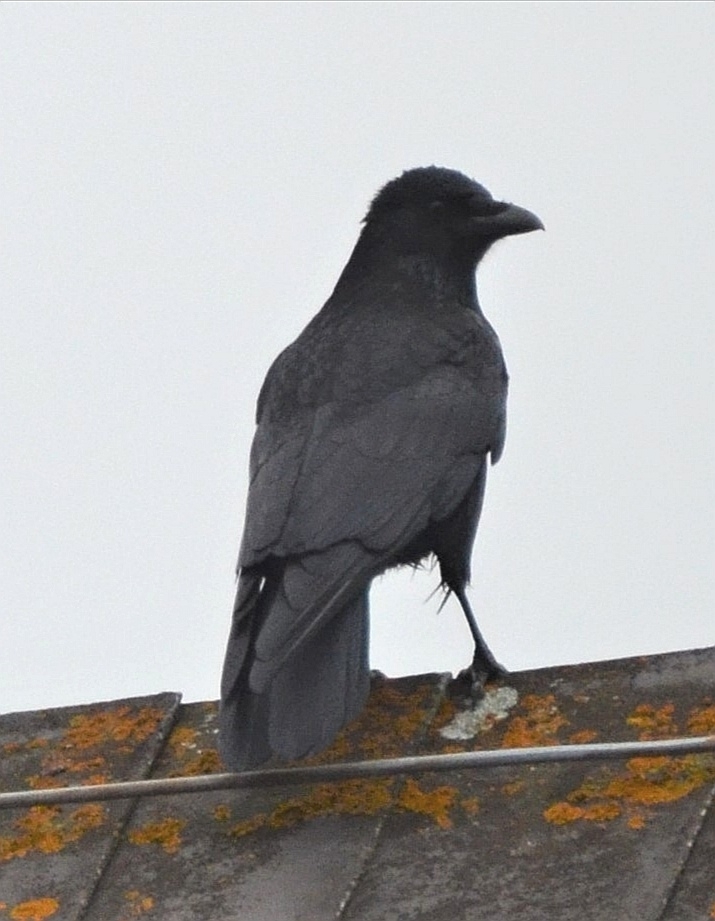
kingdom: Animalia
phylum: Chordata
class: Aves
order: Passeriformes
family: Corvidae
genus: Corvus
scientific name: Corvus corone
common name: Carrion crow
